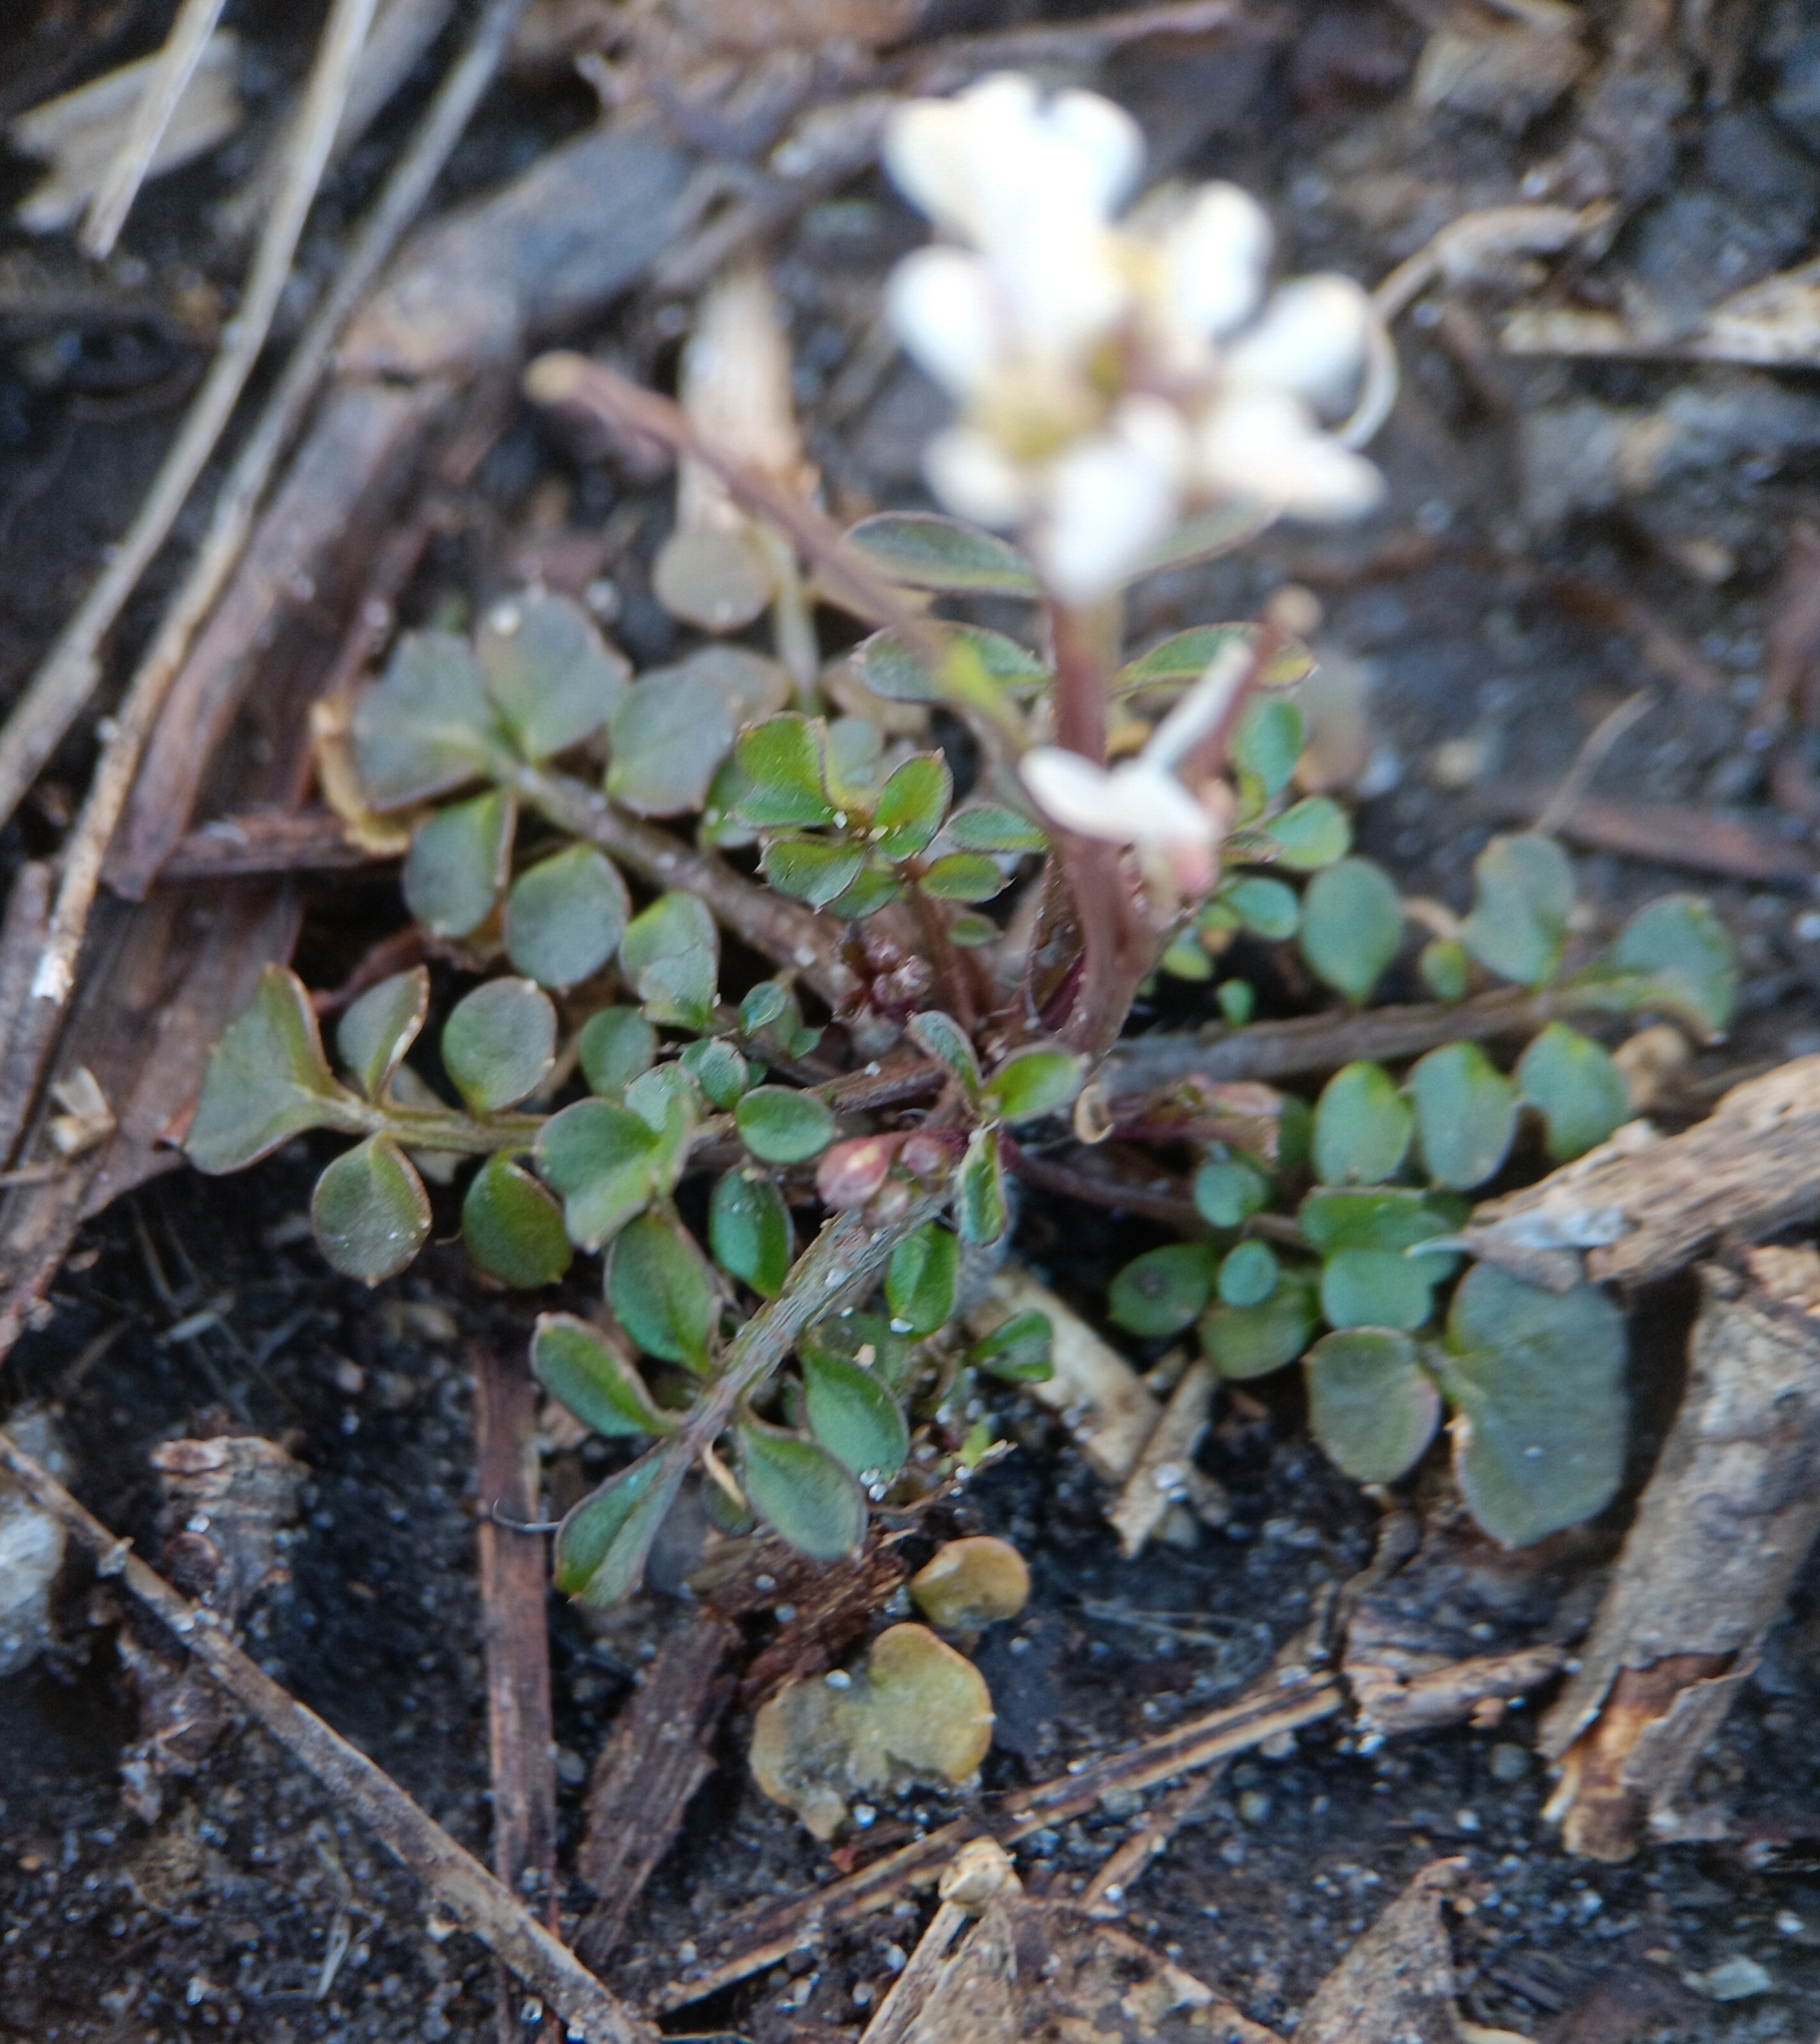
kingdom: Plantae
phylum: Tracheophyta
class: Magnoliopsida
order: Brassicales
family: Brassicaceae
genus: Cardamine
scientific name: Cardamine hirsuta
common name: Hairy bittercress
